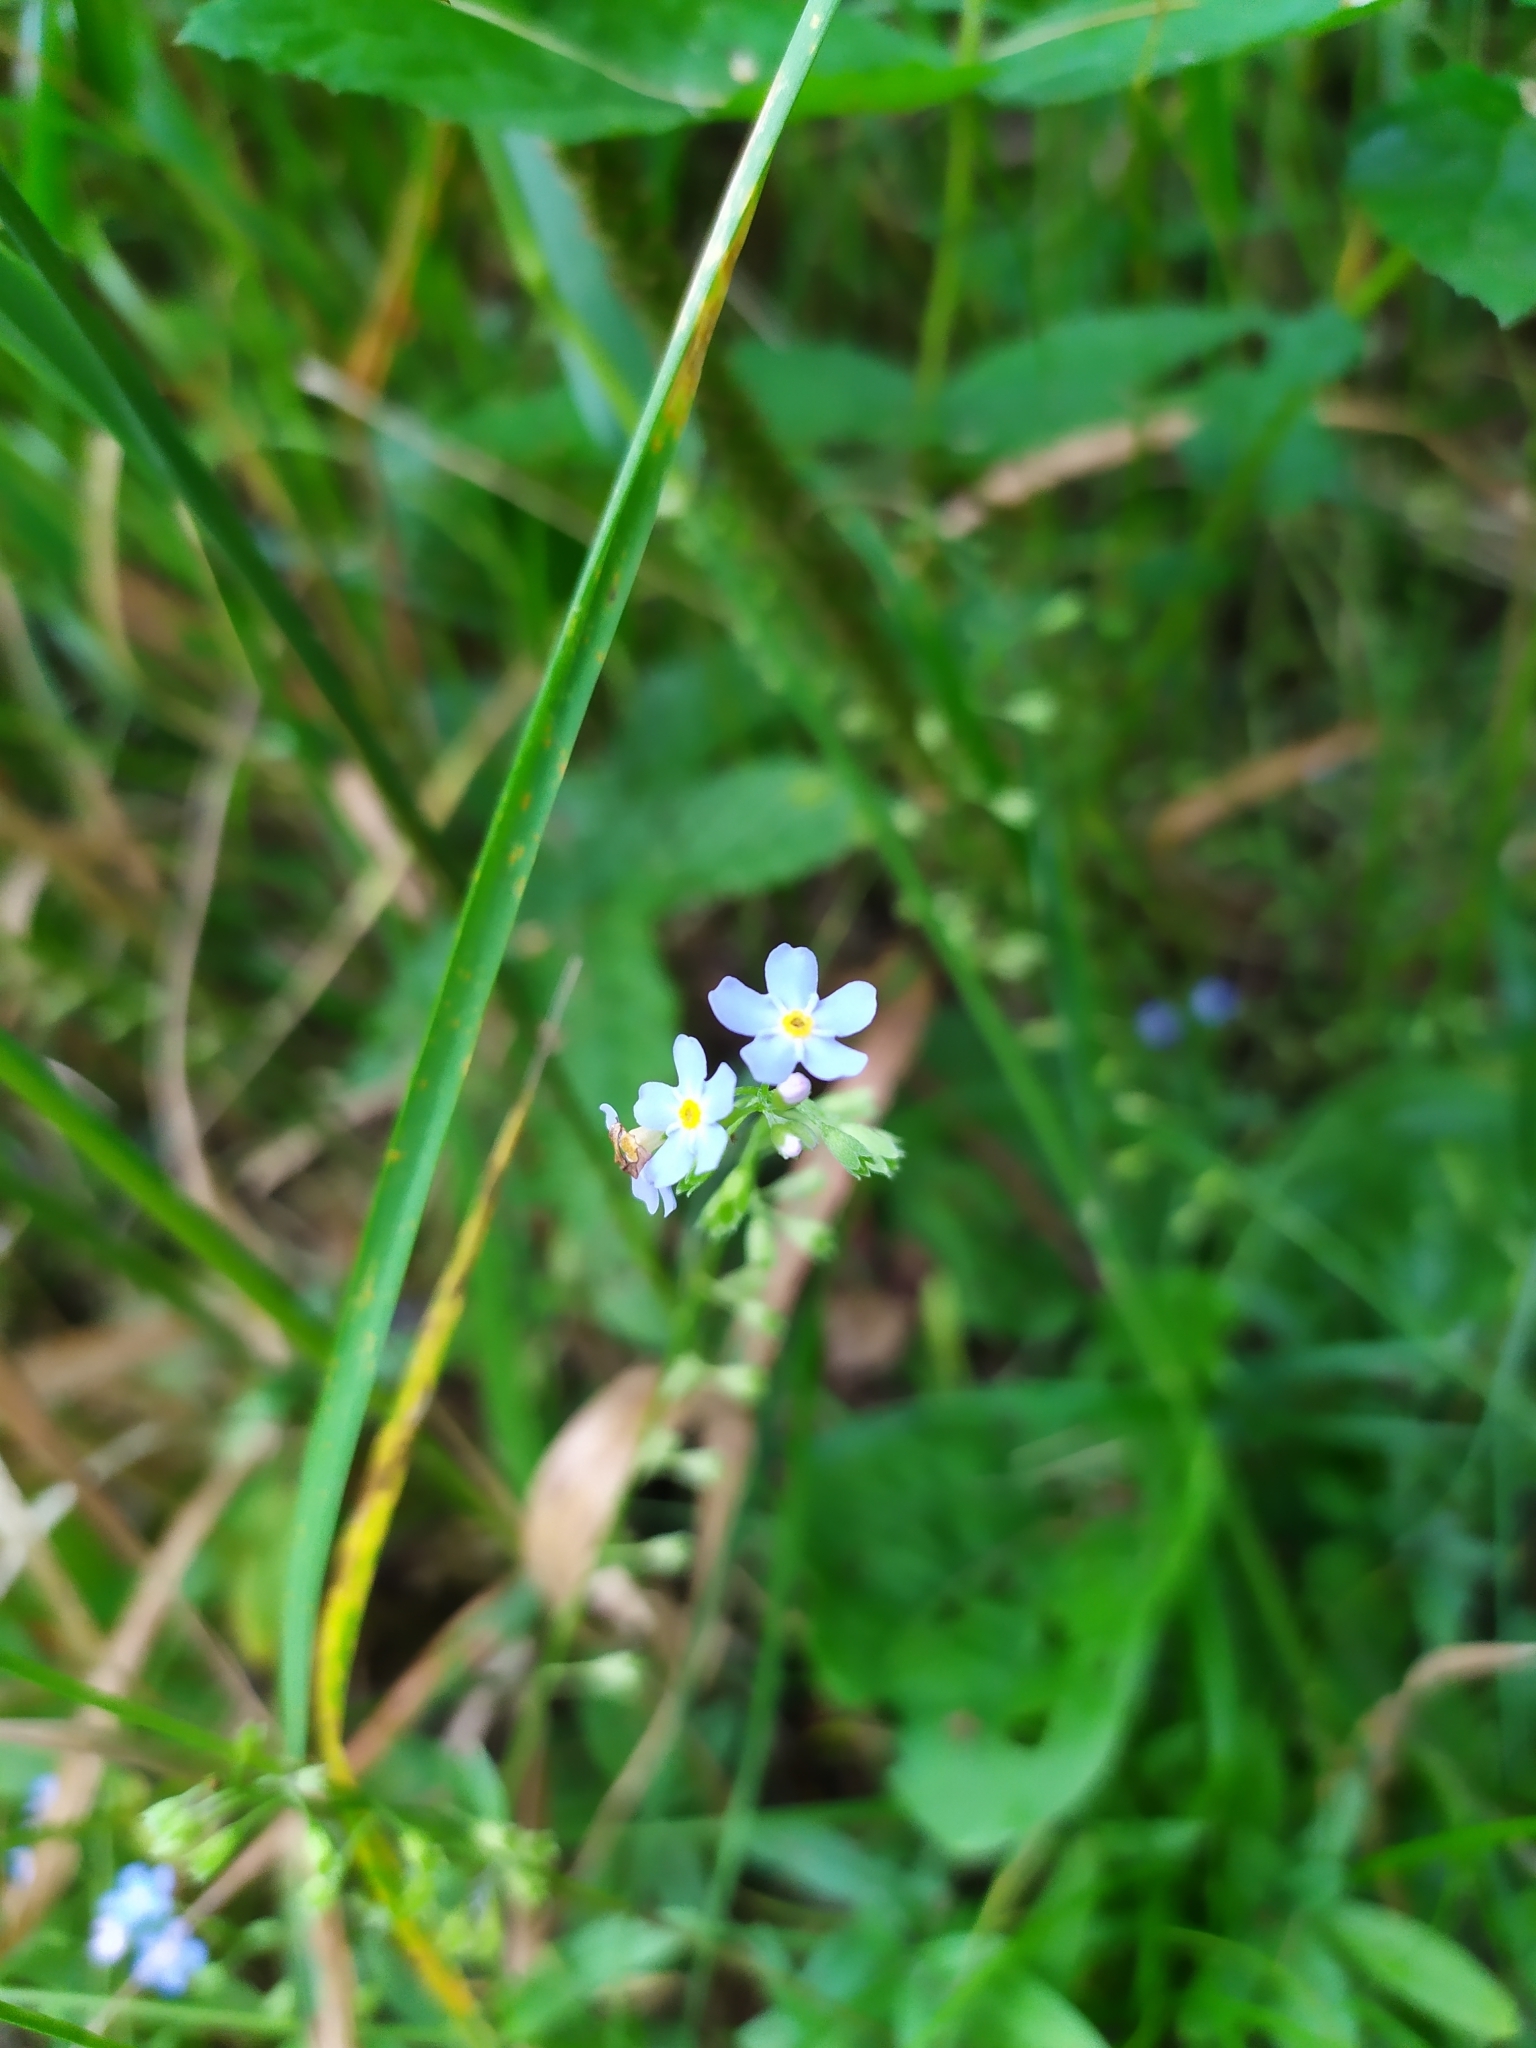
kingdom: Plantae
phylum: Tracheophyta
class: Magnoliopsida
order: Boraginales
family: Boraginaceae
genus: Myosotis
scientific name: Myosotis scorpioides
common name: Water forget-me-not
